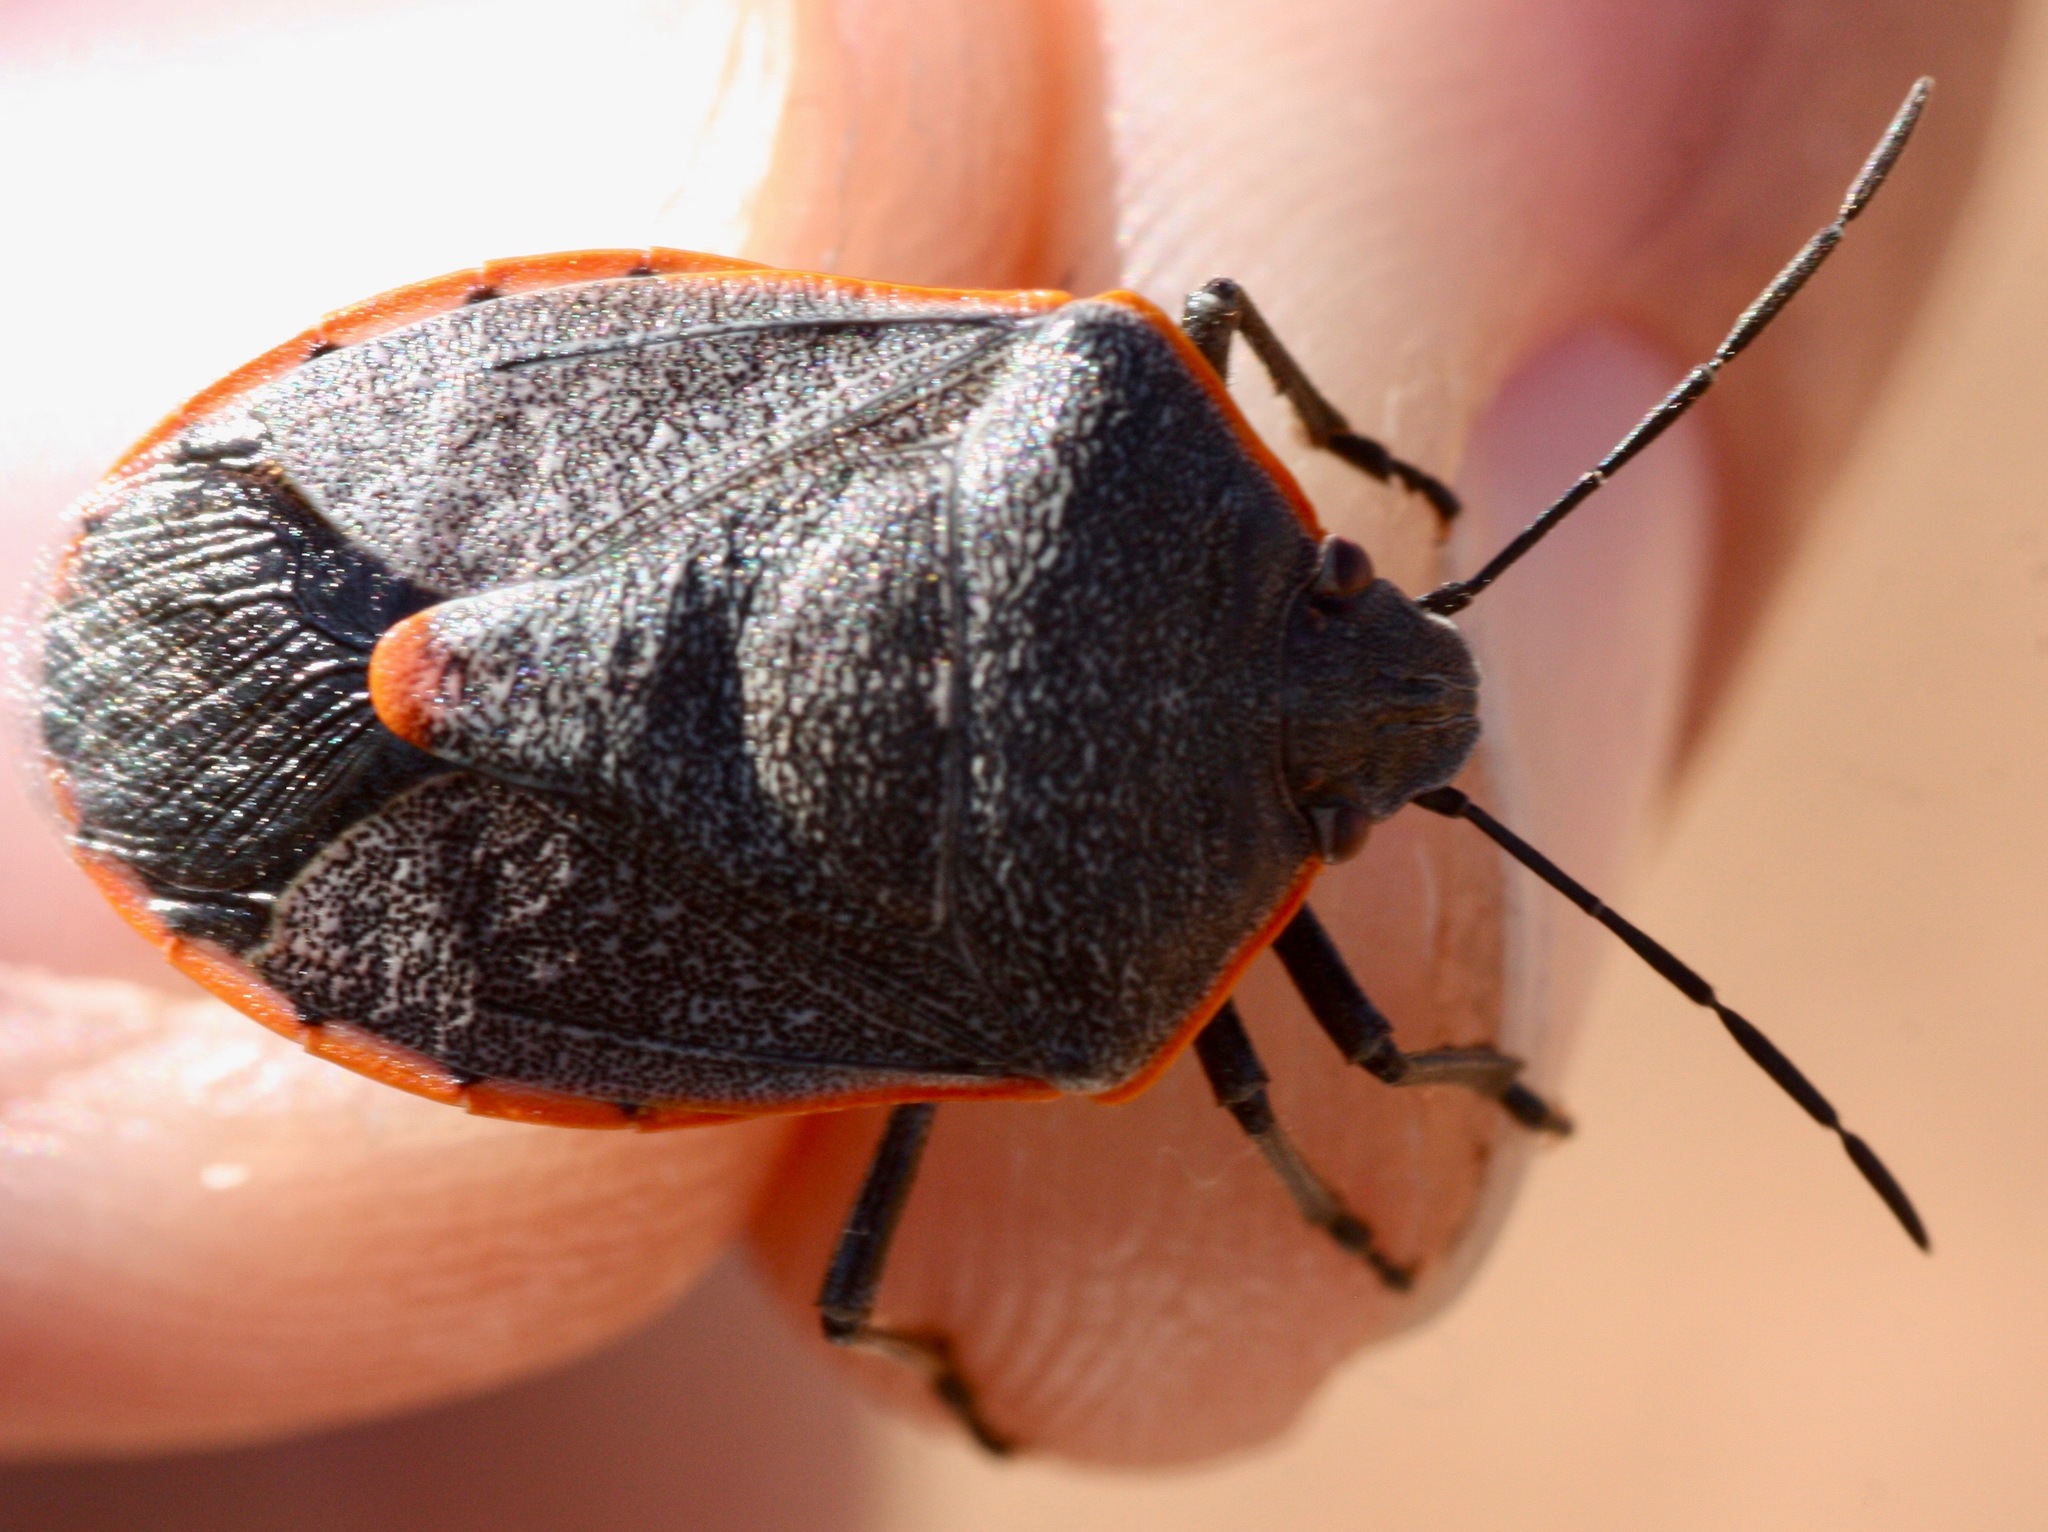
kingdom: Animalia
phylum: Arthropoda
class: Insecta
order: Hemiptera
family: Pentatomidae
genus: Chlorochroa
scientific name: Chlorochroa ligata
